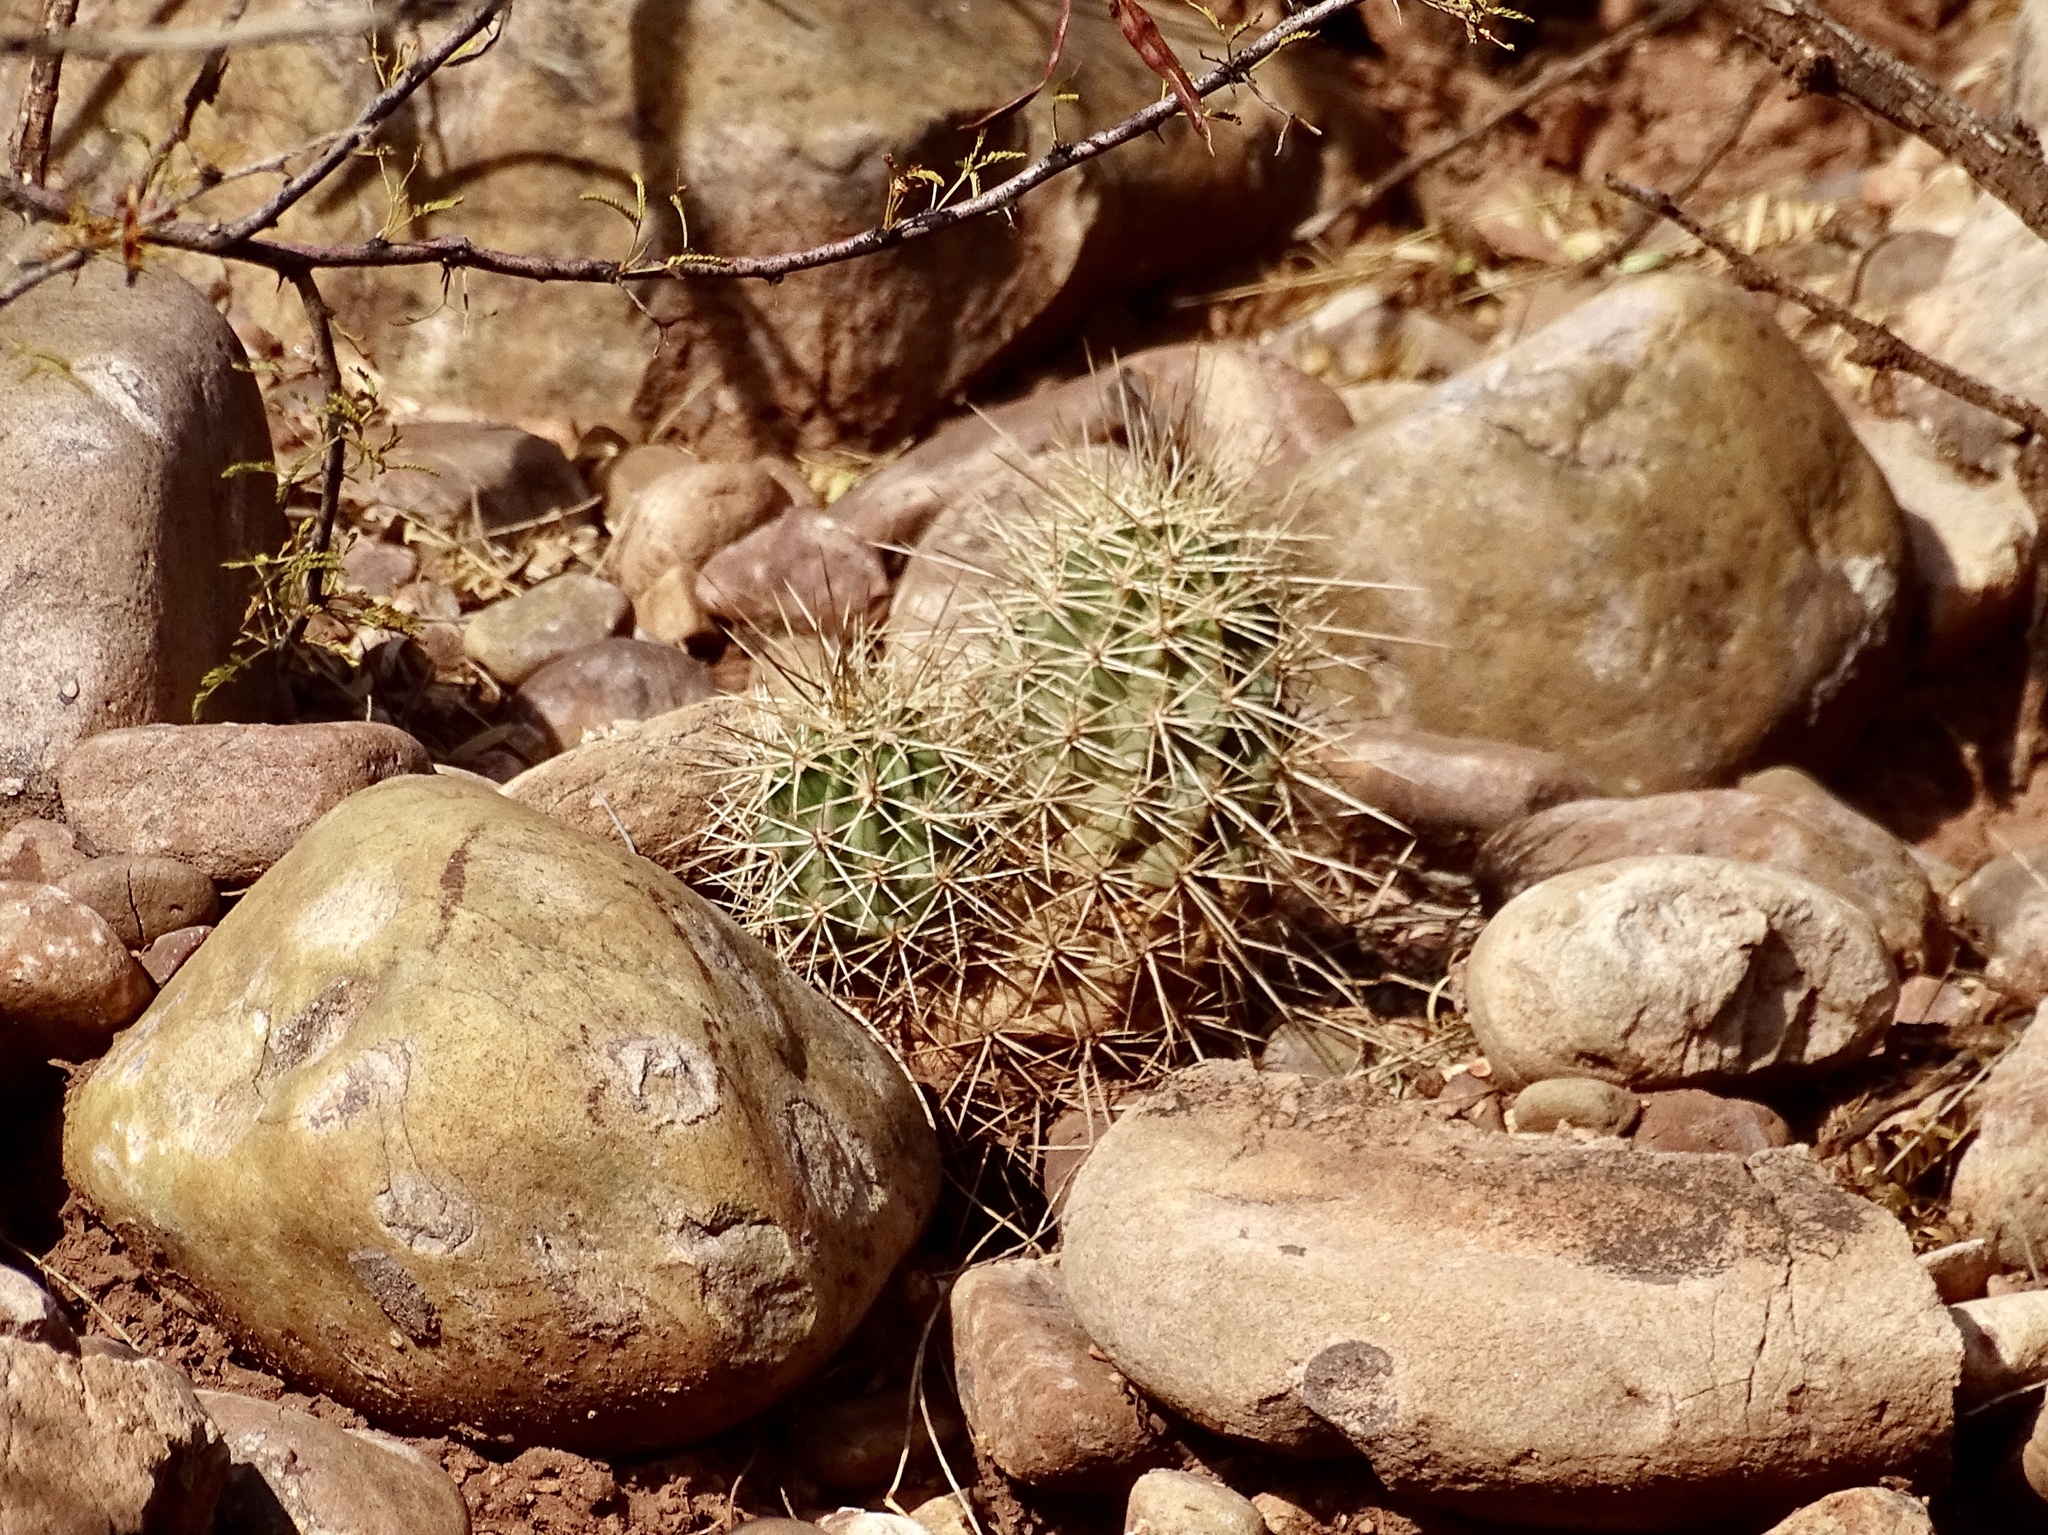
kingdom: Plantae
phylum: Tracheophyta
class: Magnoliopsida
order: Caryophyllales
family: Cactaceae
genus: Echinocereus
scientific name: Echinocereus coccineus
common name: Scarlet hedgehog cactus
